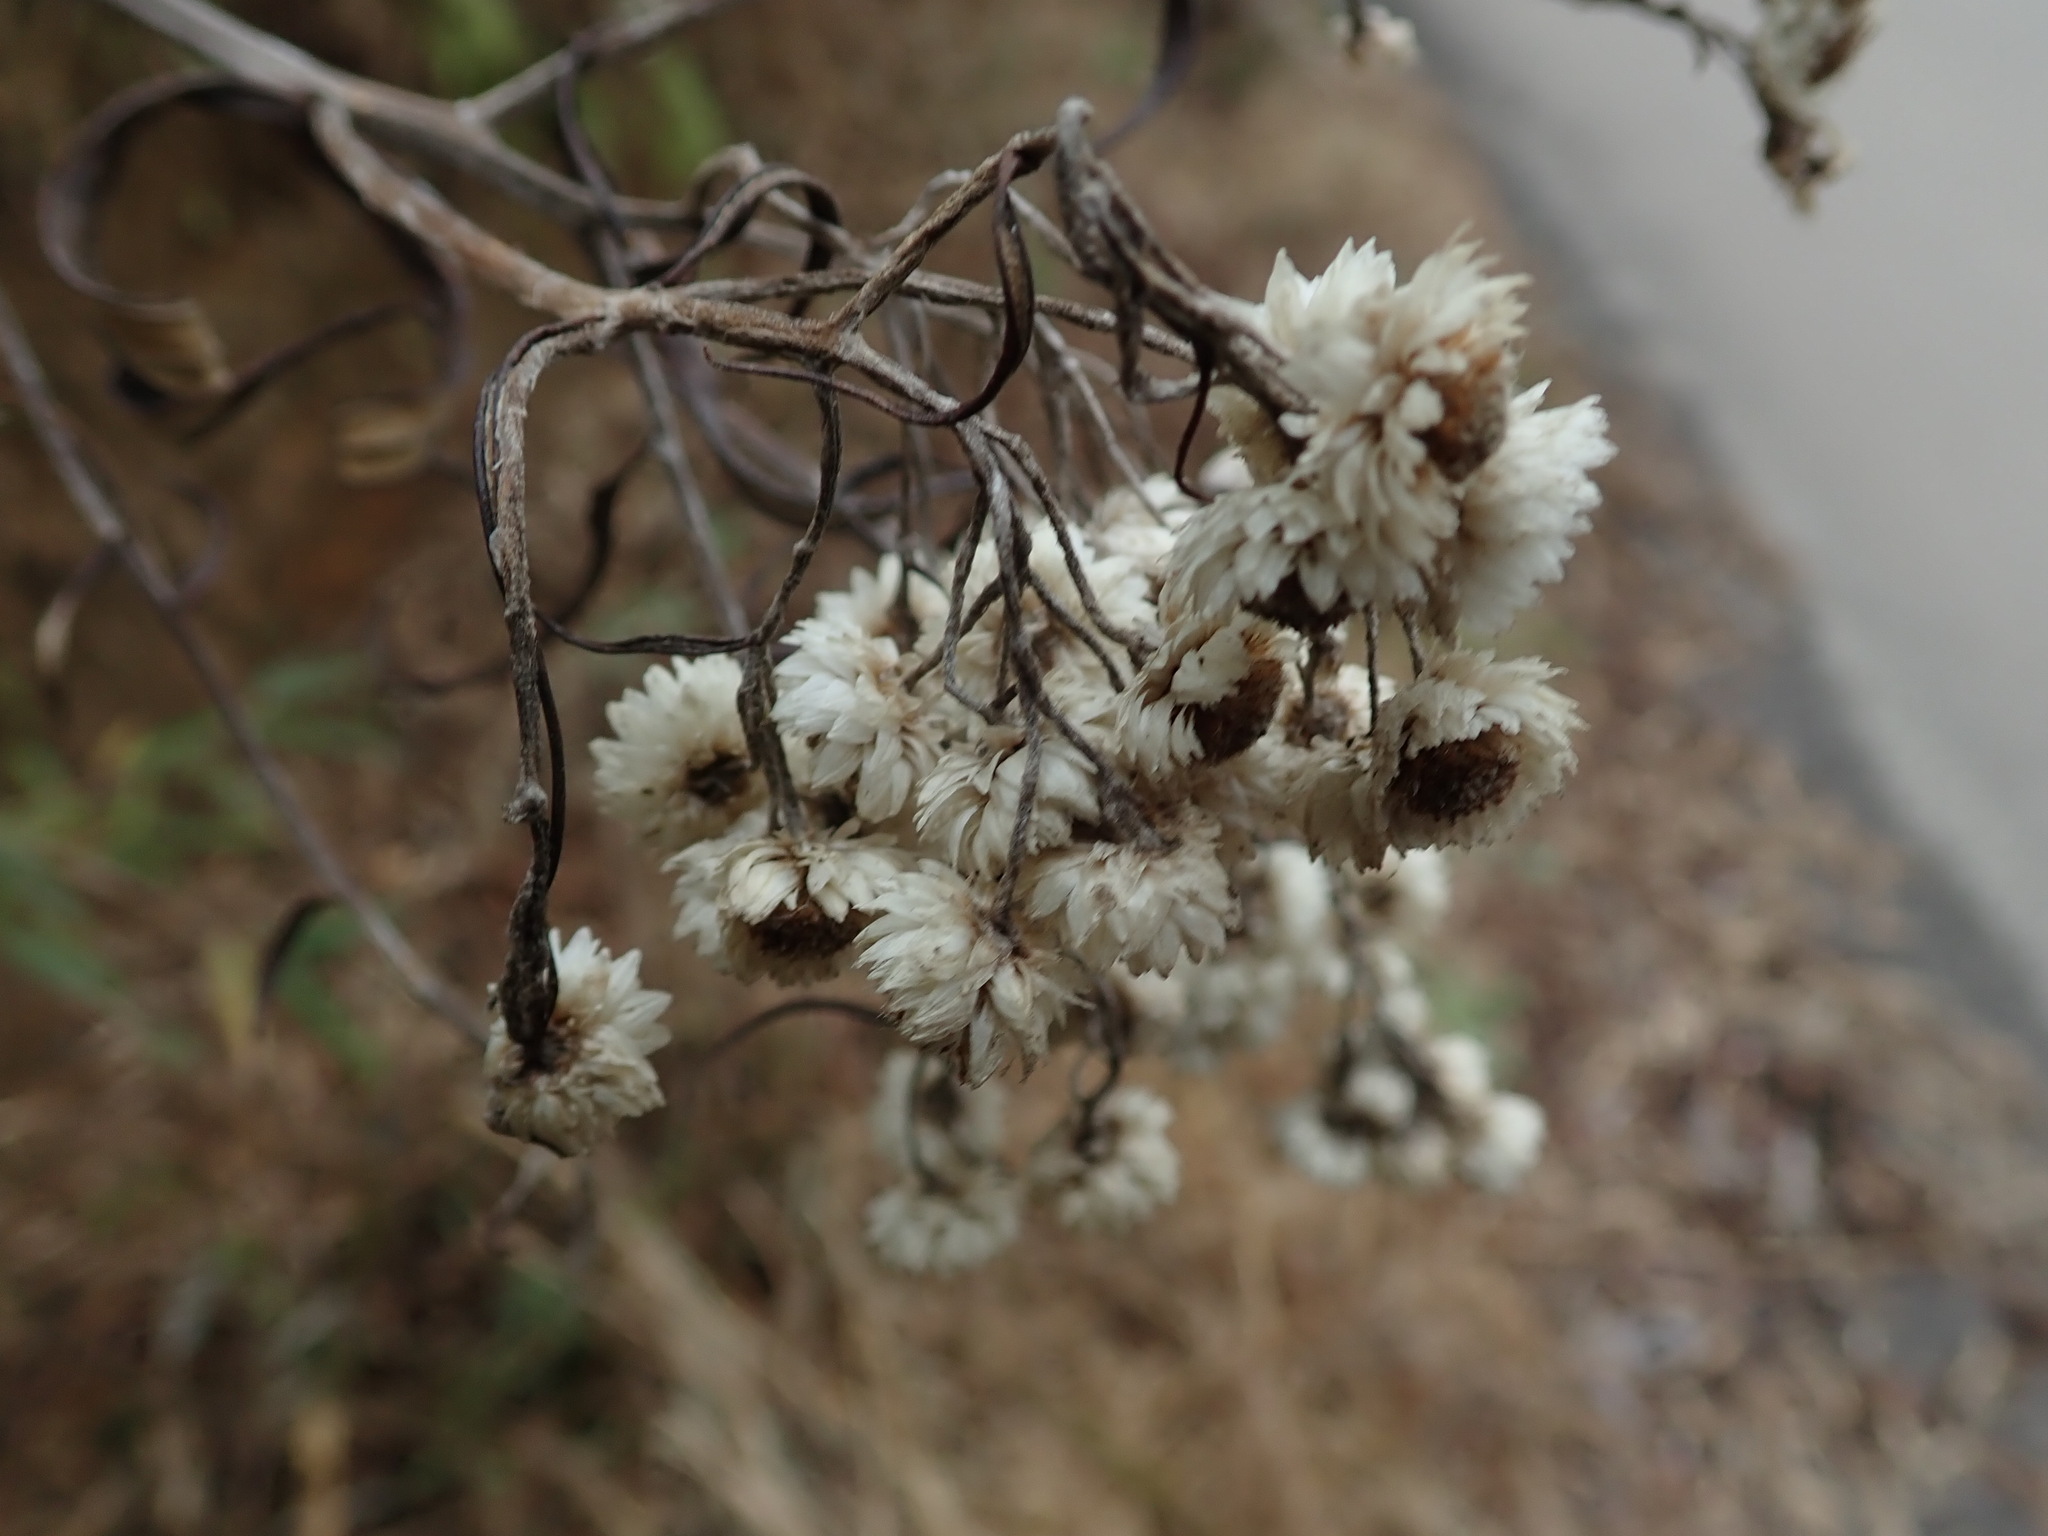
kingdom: Plantae
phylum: Tracheophyta
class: Magnoliopsida
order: Asterales
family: Asteraceae
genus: Anaphalis
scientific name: Anaphalis margaritacea
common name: Pearly everlasting
